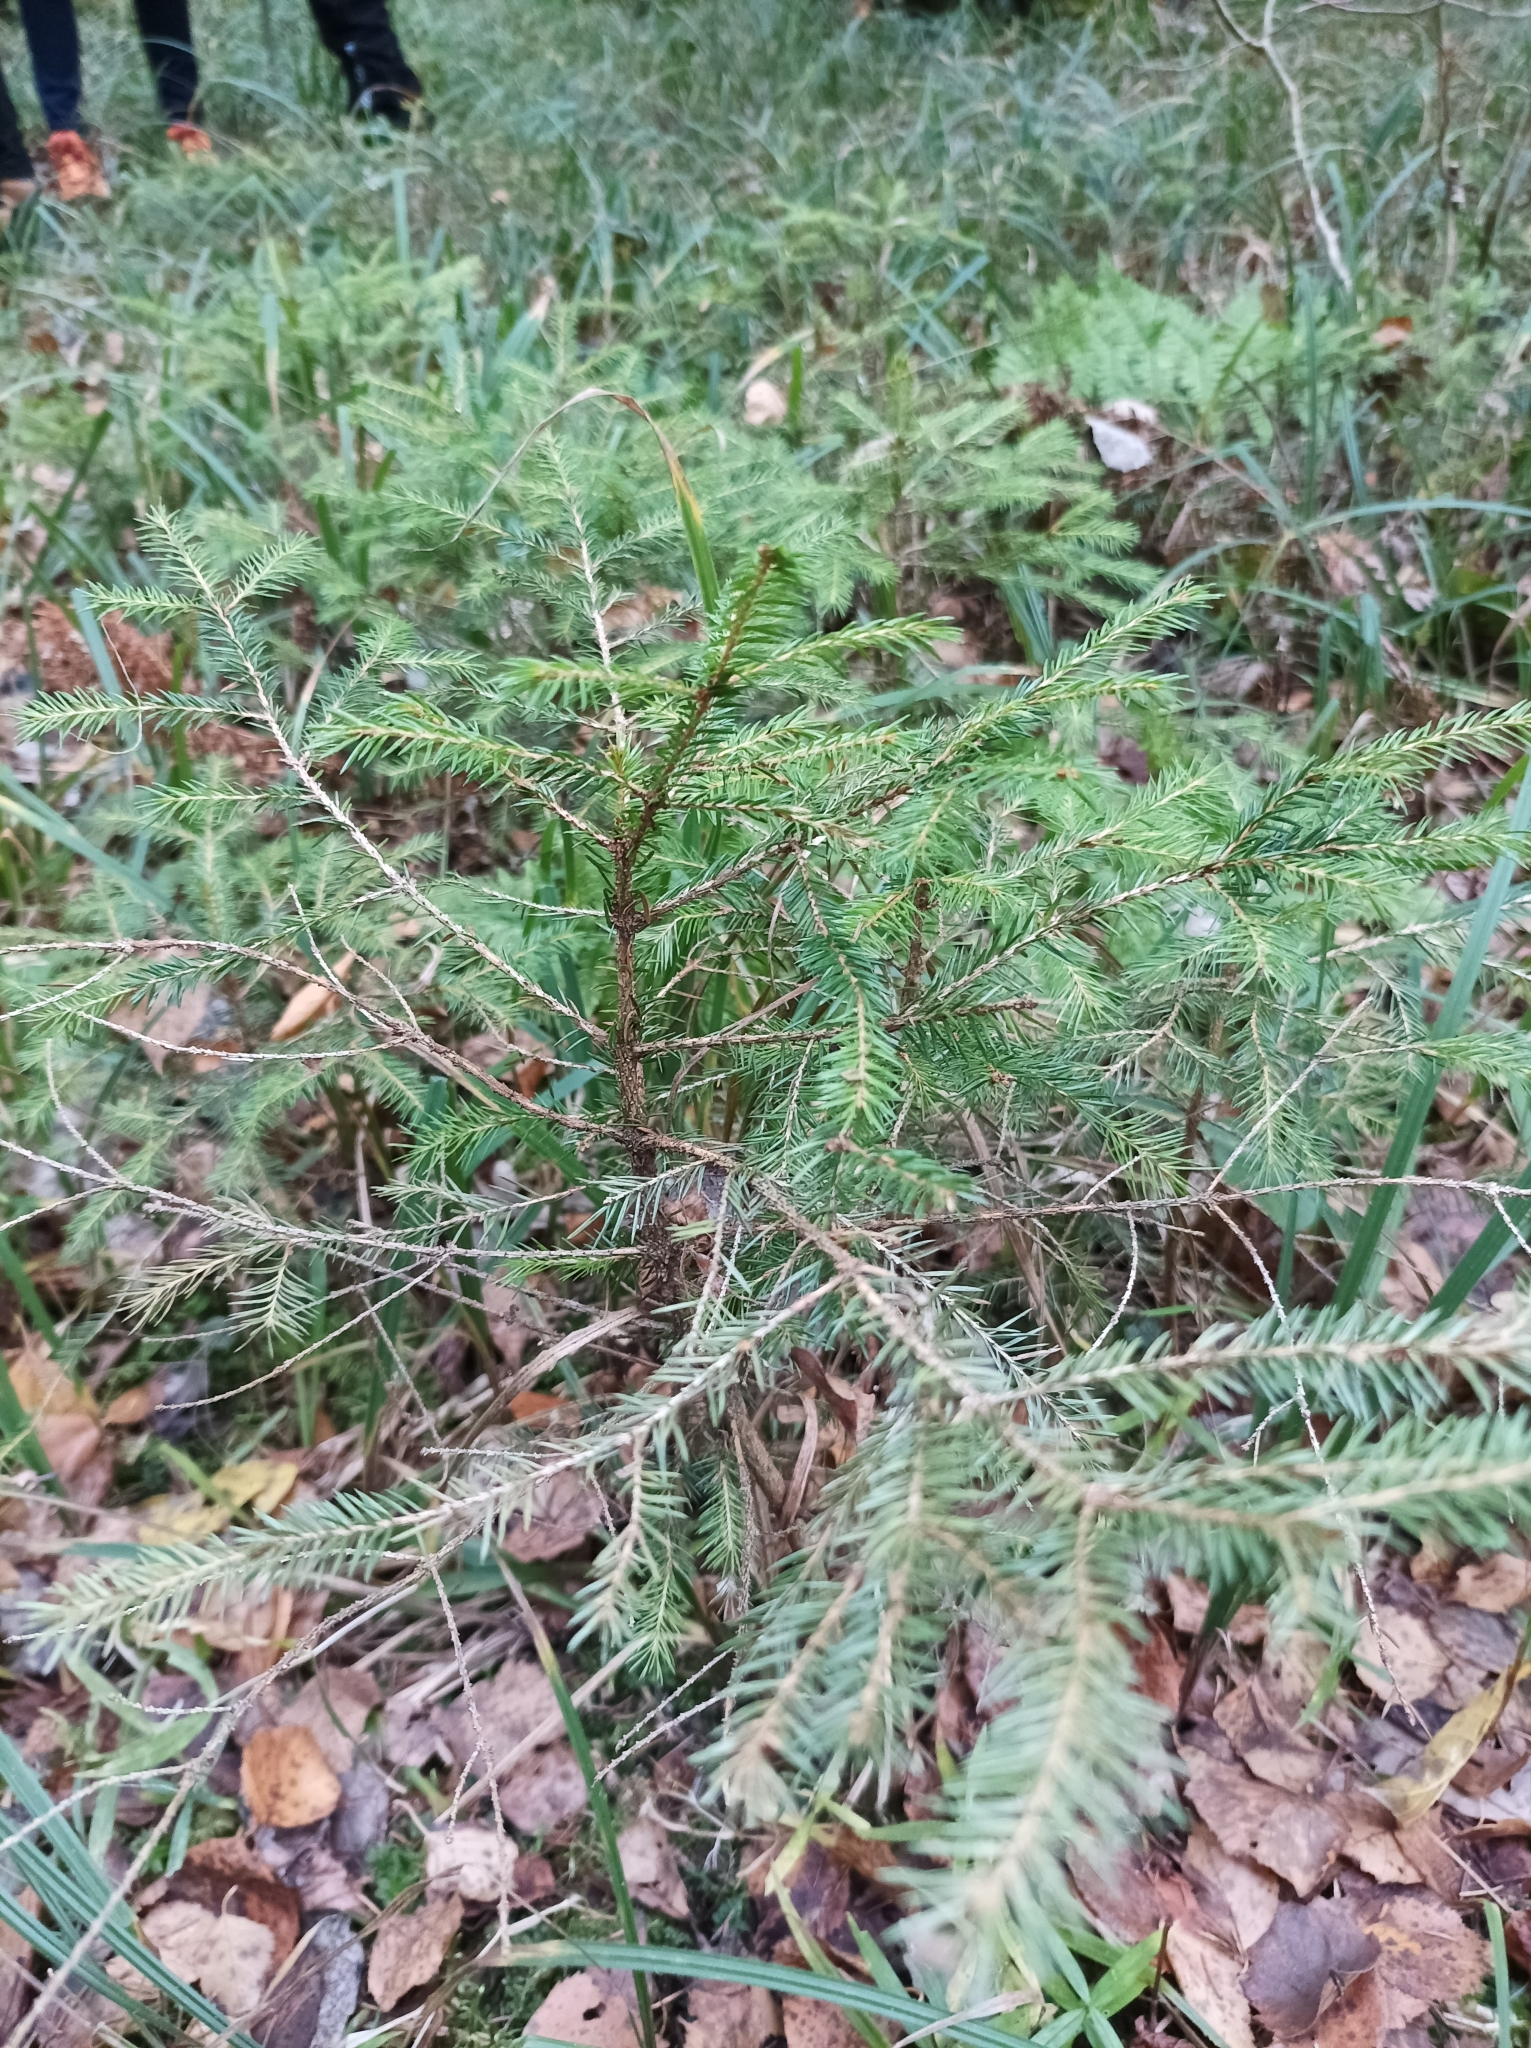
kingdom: Plantae
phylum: Tracheophyta
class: Pinopsida
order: Pinales
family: Pinaceae
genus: Picea
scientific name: Picea abies
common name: Norway spruce
